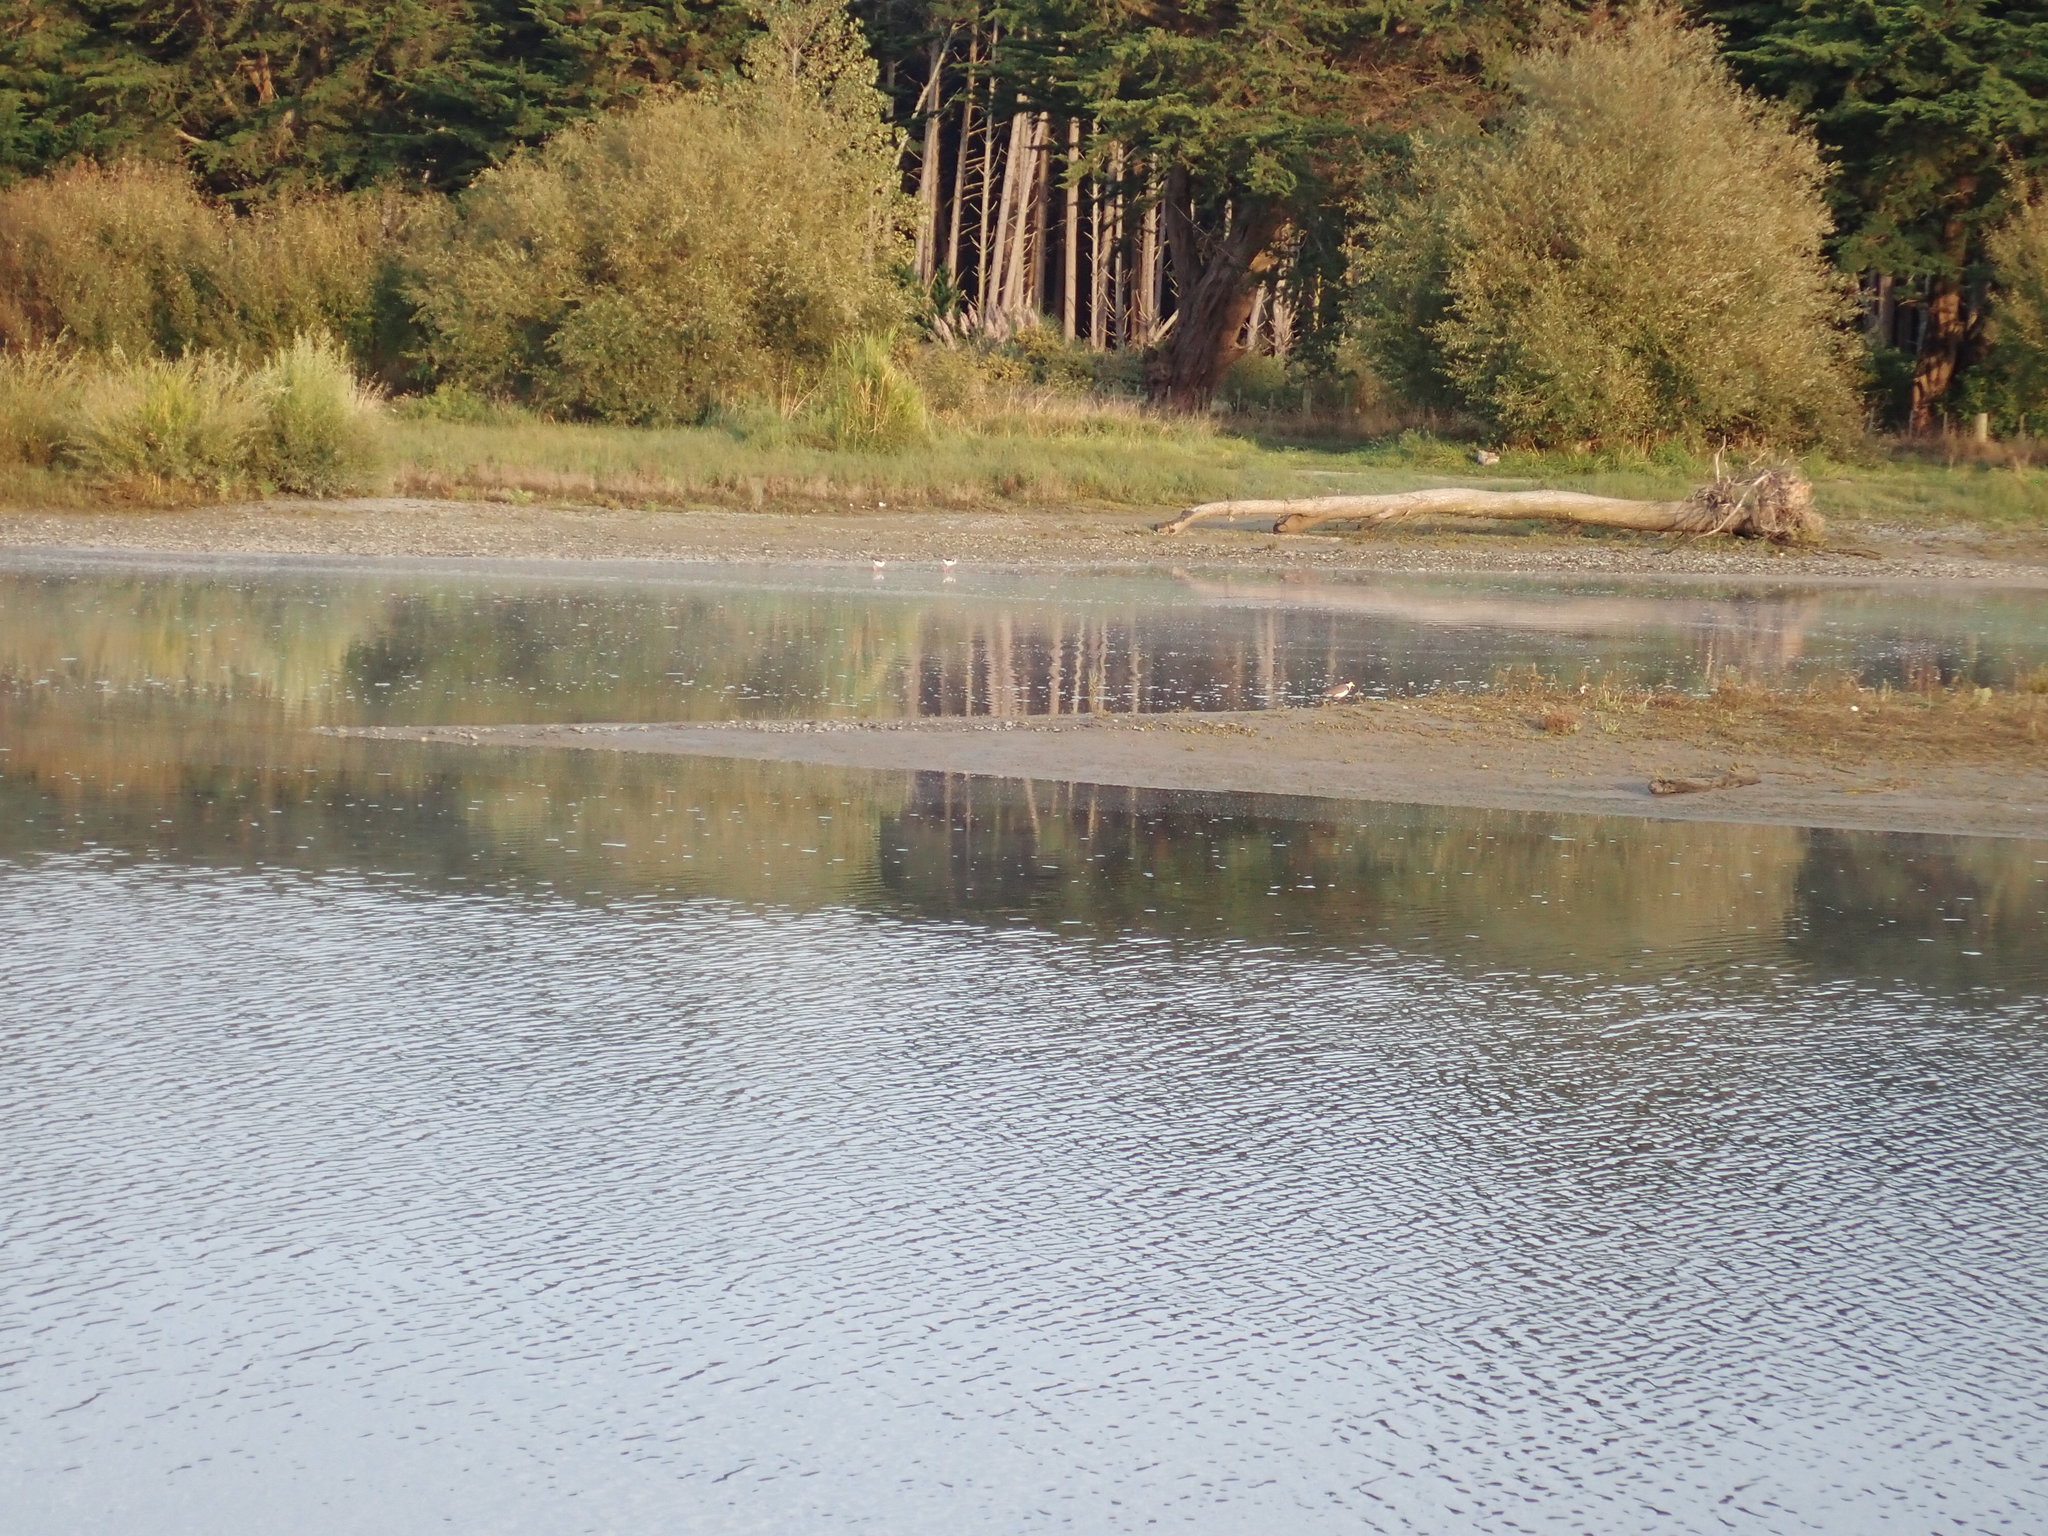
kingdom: Animalia
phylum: Chordata
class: Aves
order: Charadriiformes
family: Charadriidae
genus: Vanellus
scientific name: Vanellus miles
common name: Masked lapwing
